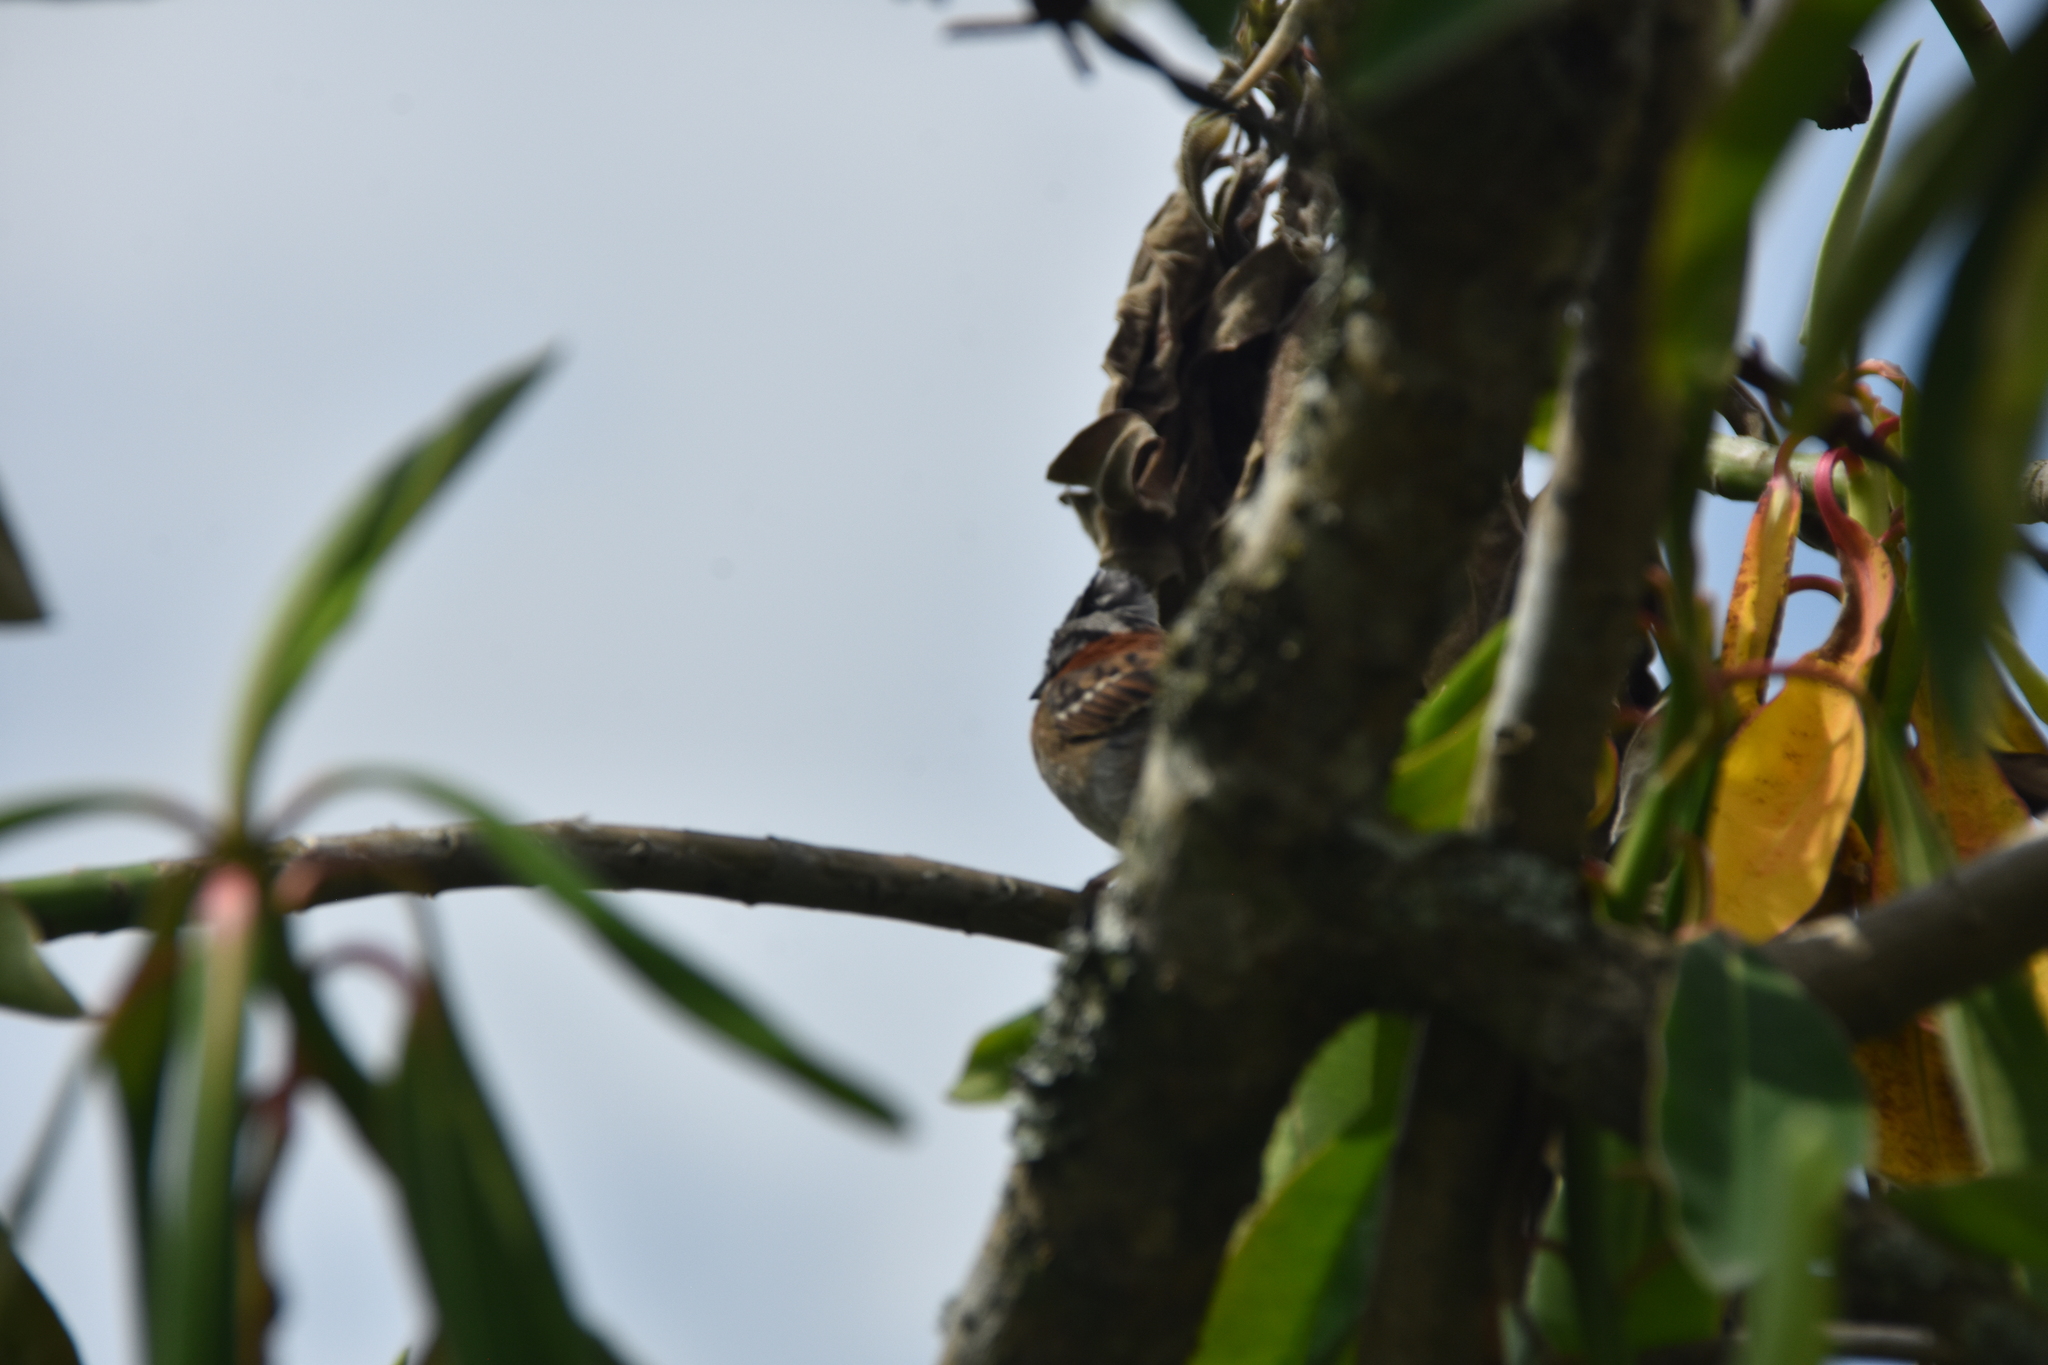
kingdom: Animalia
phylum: Chordata
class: Aves
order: Passeriformes
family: Passerellidae
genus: Zonotrichia
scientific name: Zonotrichia capensis
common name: Rufous-collared sparrow
